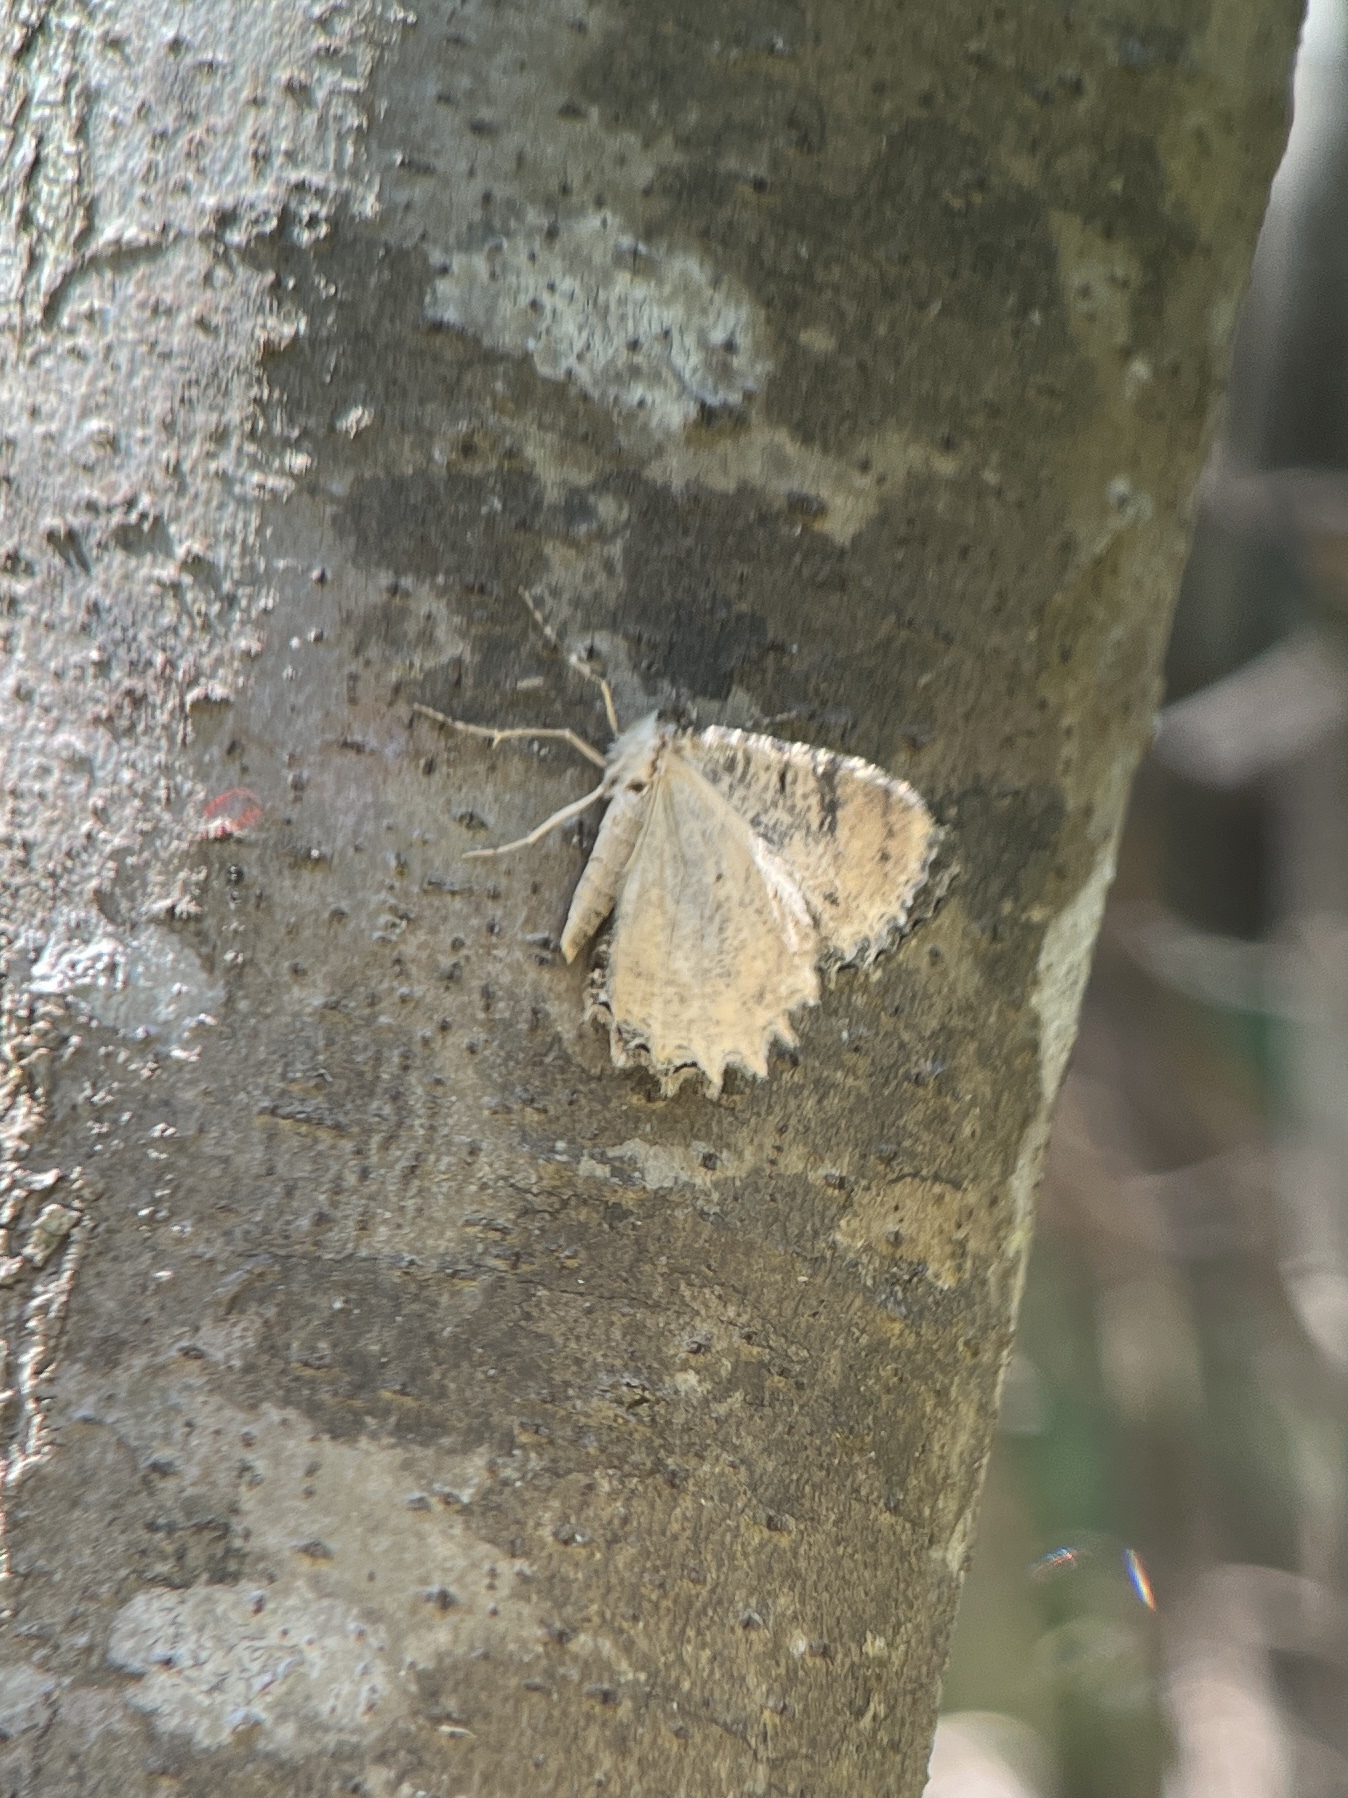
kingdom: Animalia
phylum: Arthropoda
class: Insecta
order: Lepidoptera
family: Geometridae
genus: Epimecis
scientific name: Epimecis hortaria
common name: Tulip-tree beauty
